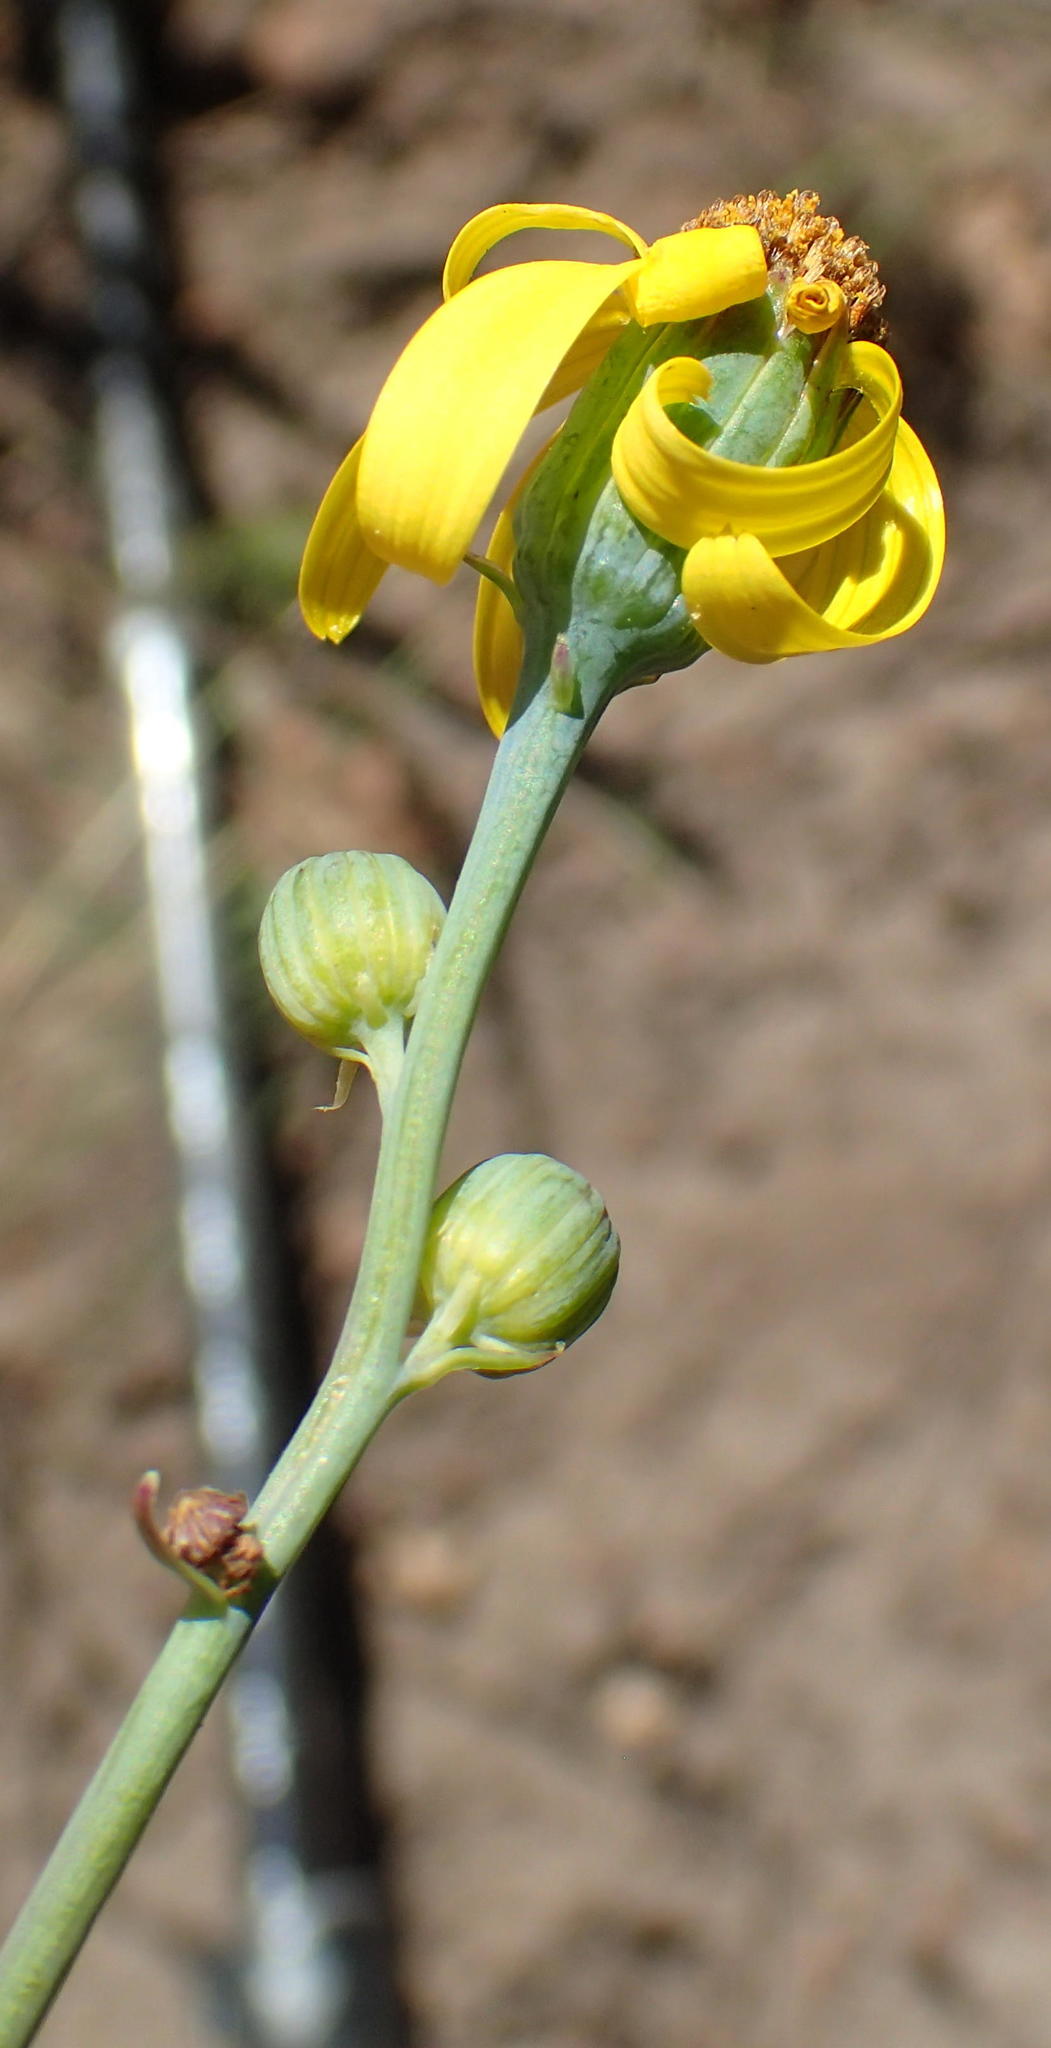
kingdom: Plantae
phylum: Tracheophyta
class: Magnoliopsida
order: Asterales
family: Asteraceae
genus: Senecio
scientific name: Senecio ruwenzoriensis
